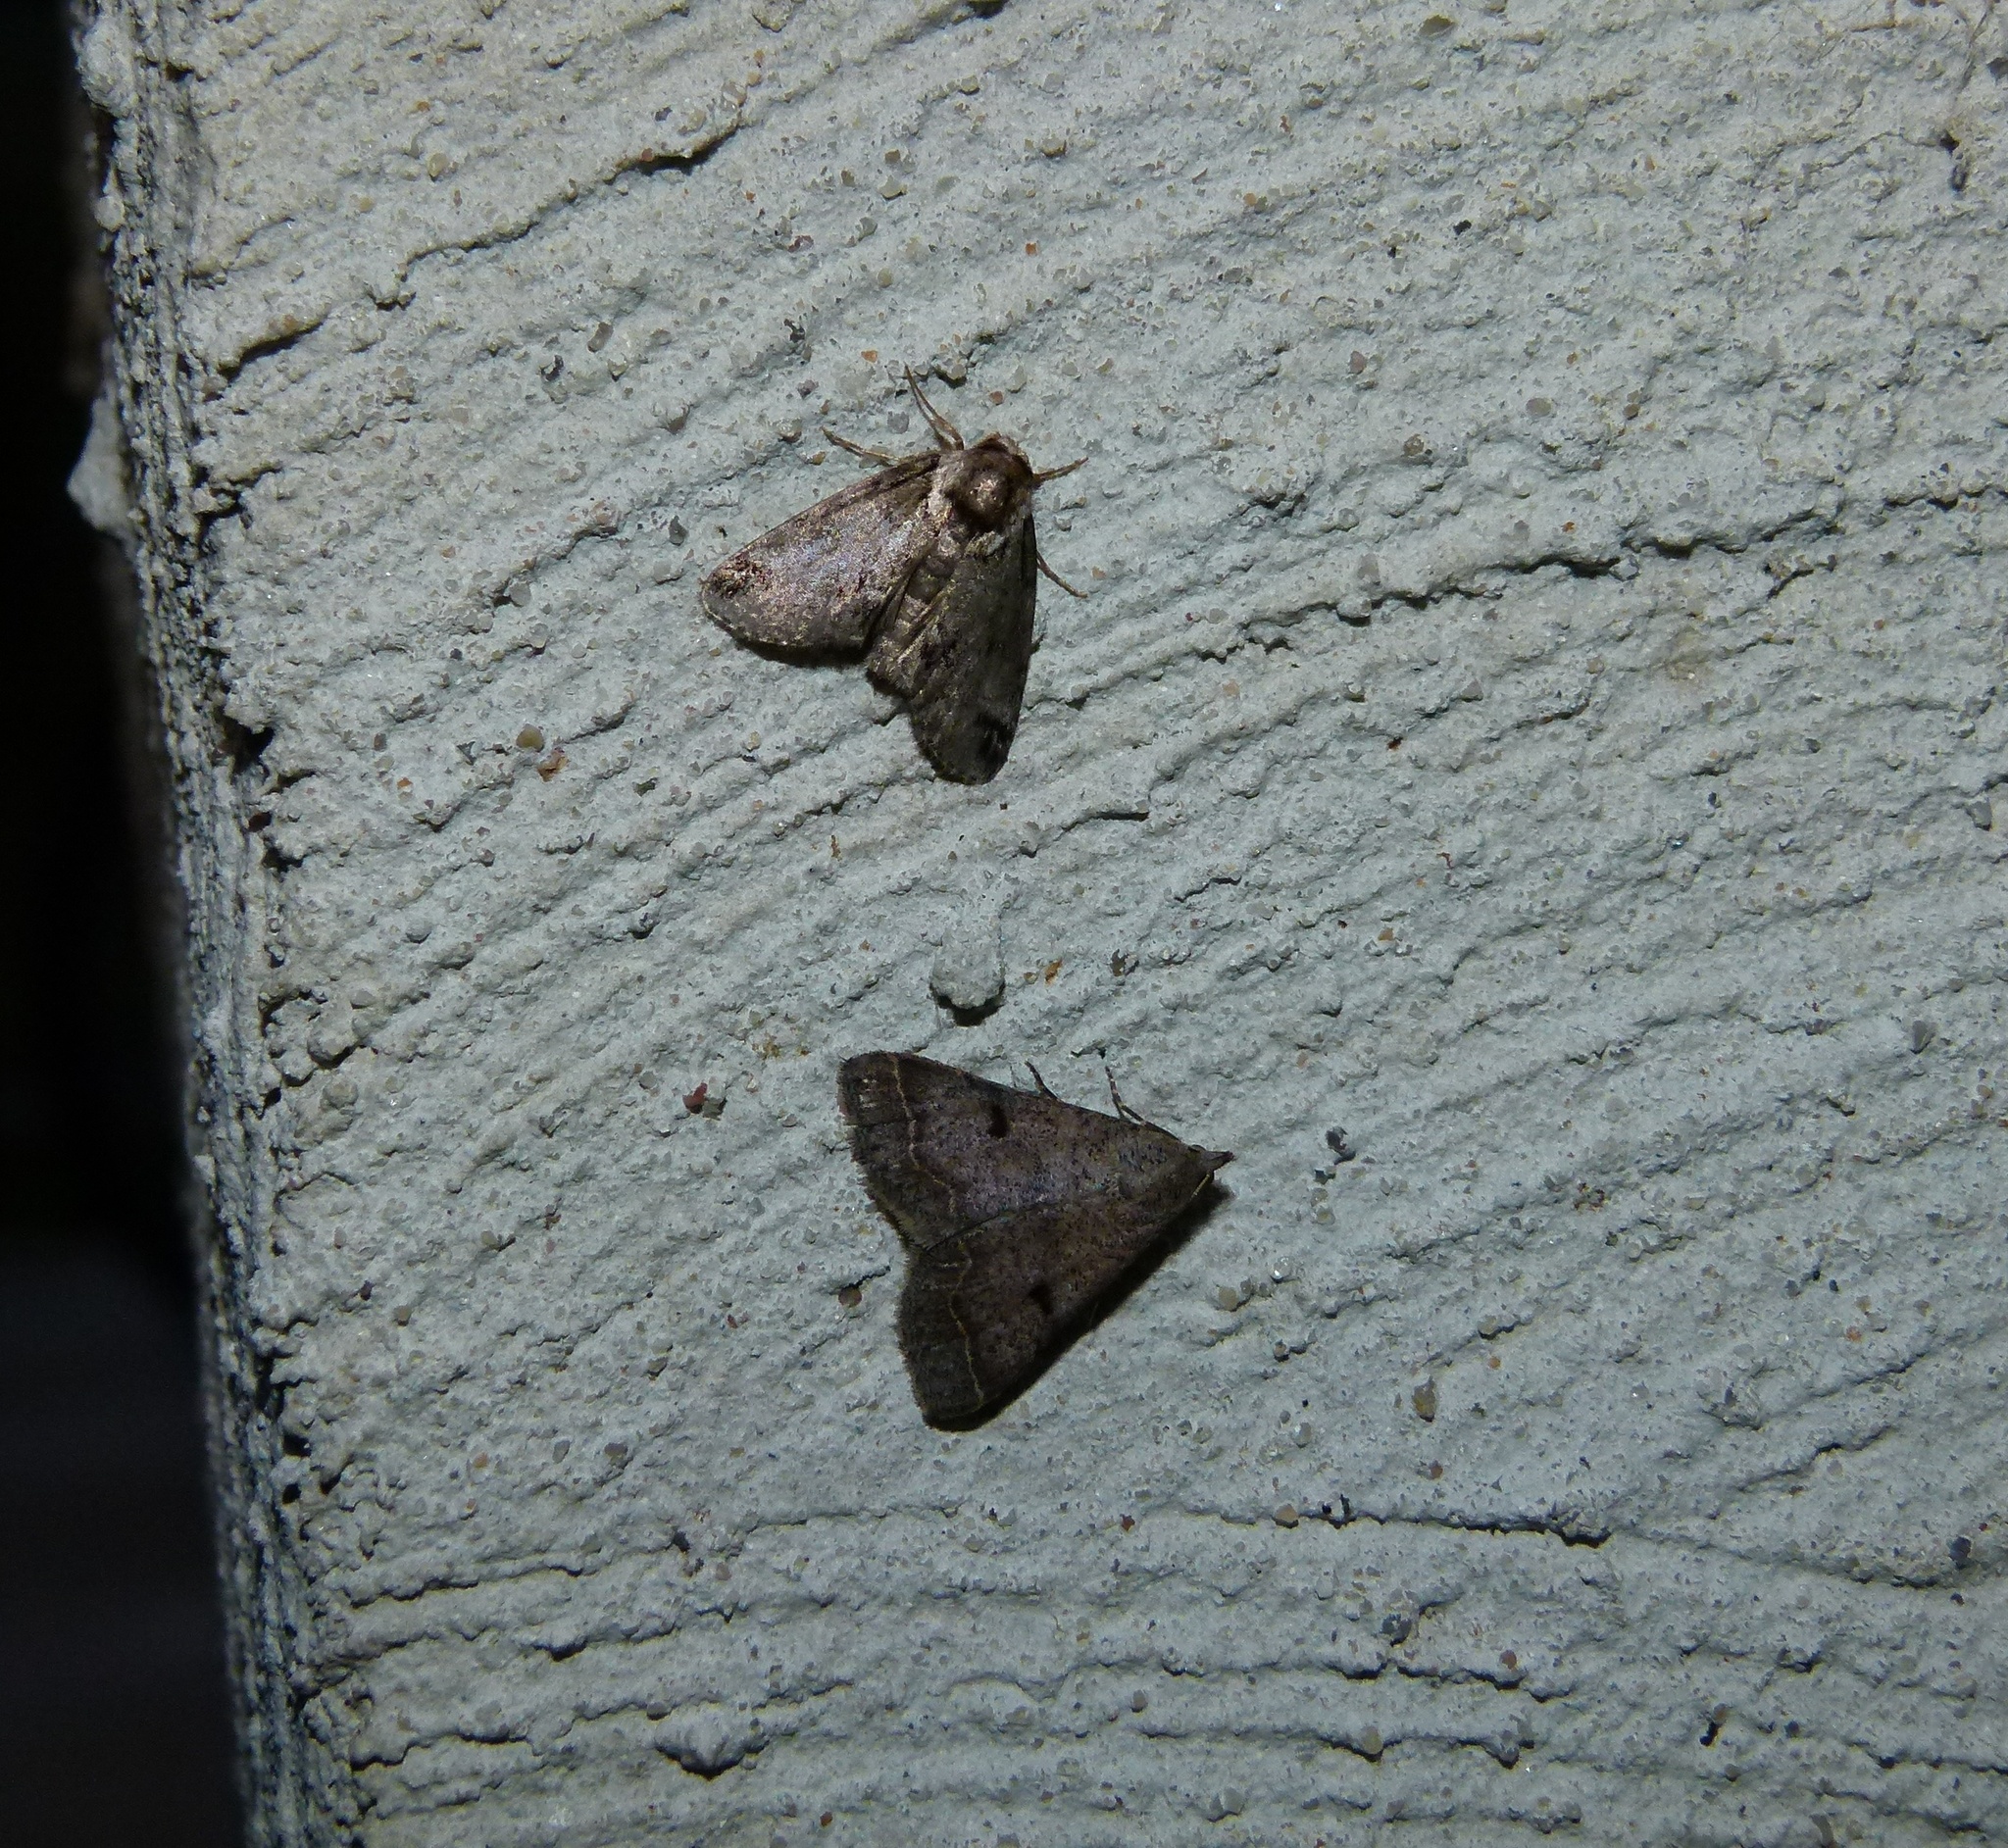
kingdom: Animalia
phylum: Arthropoda
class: Insecta
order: Lepidoptera
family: Nolidae
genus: Baileya
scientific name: Baileya australis
